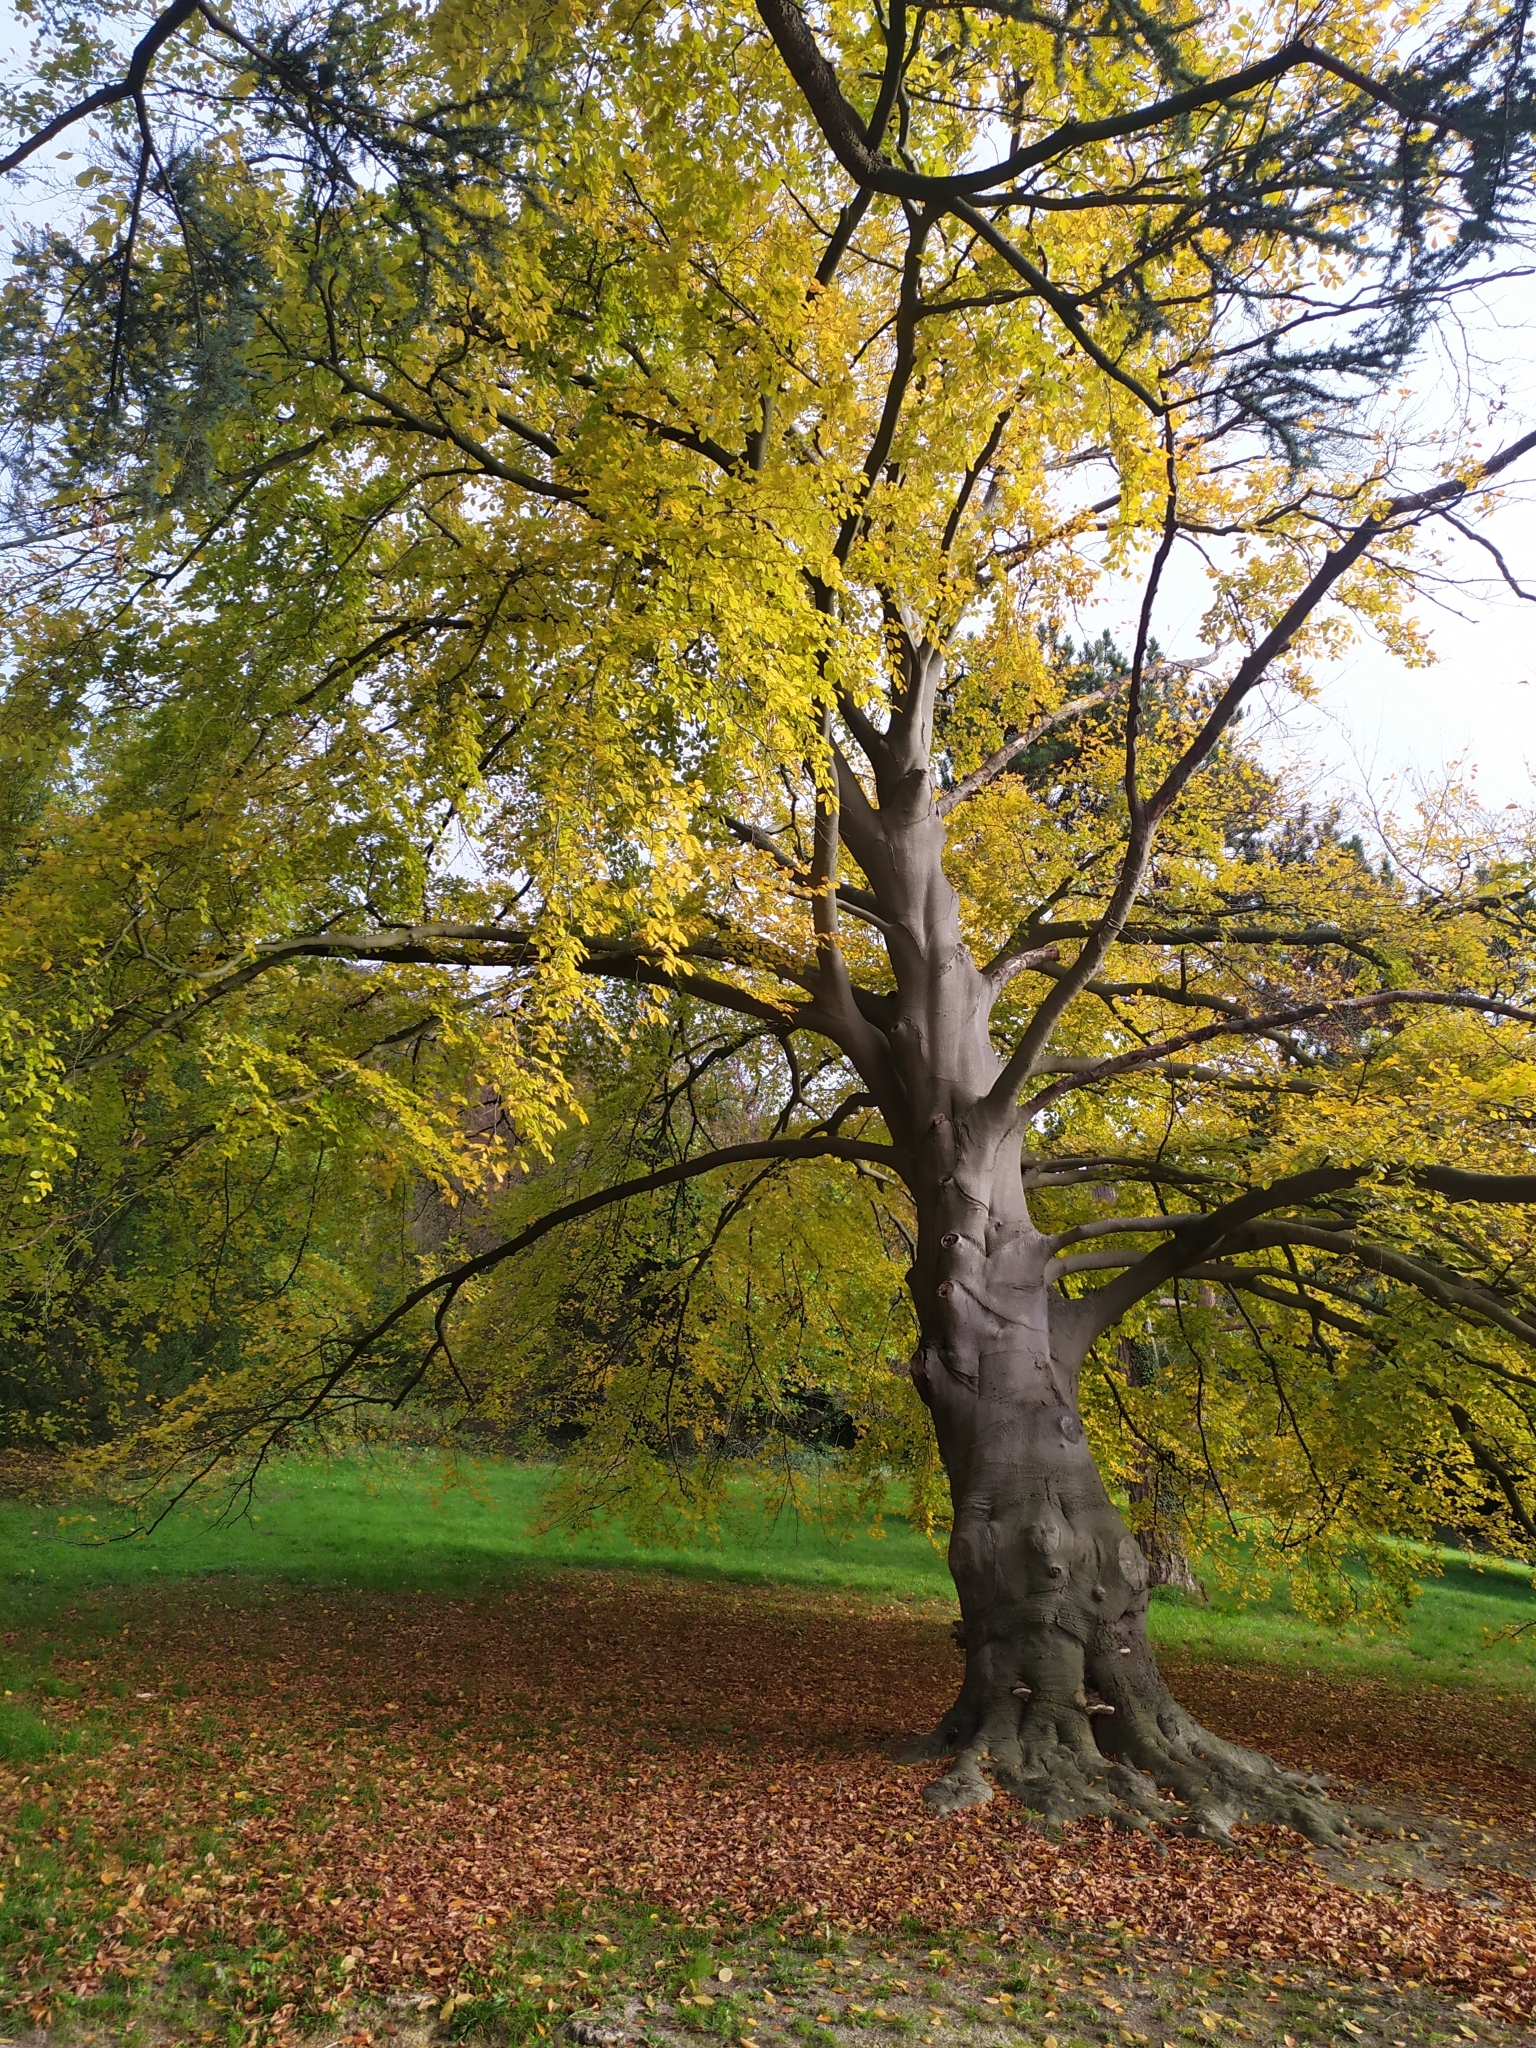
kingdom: Plantae
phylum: Tracheophyta
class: Magnoliopsida
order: Fagales
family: Fagaceae
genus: Fagus
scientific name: Fagus sylvatica
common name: Beech
